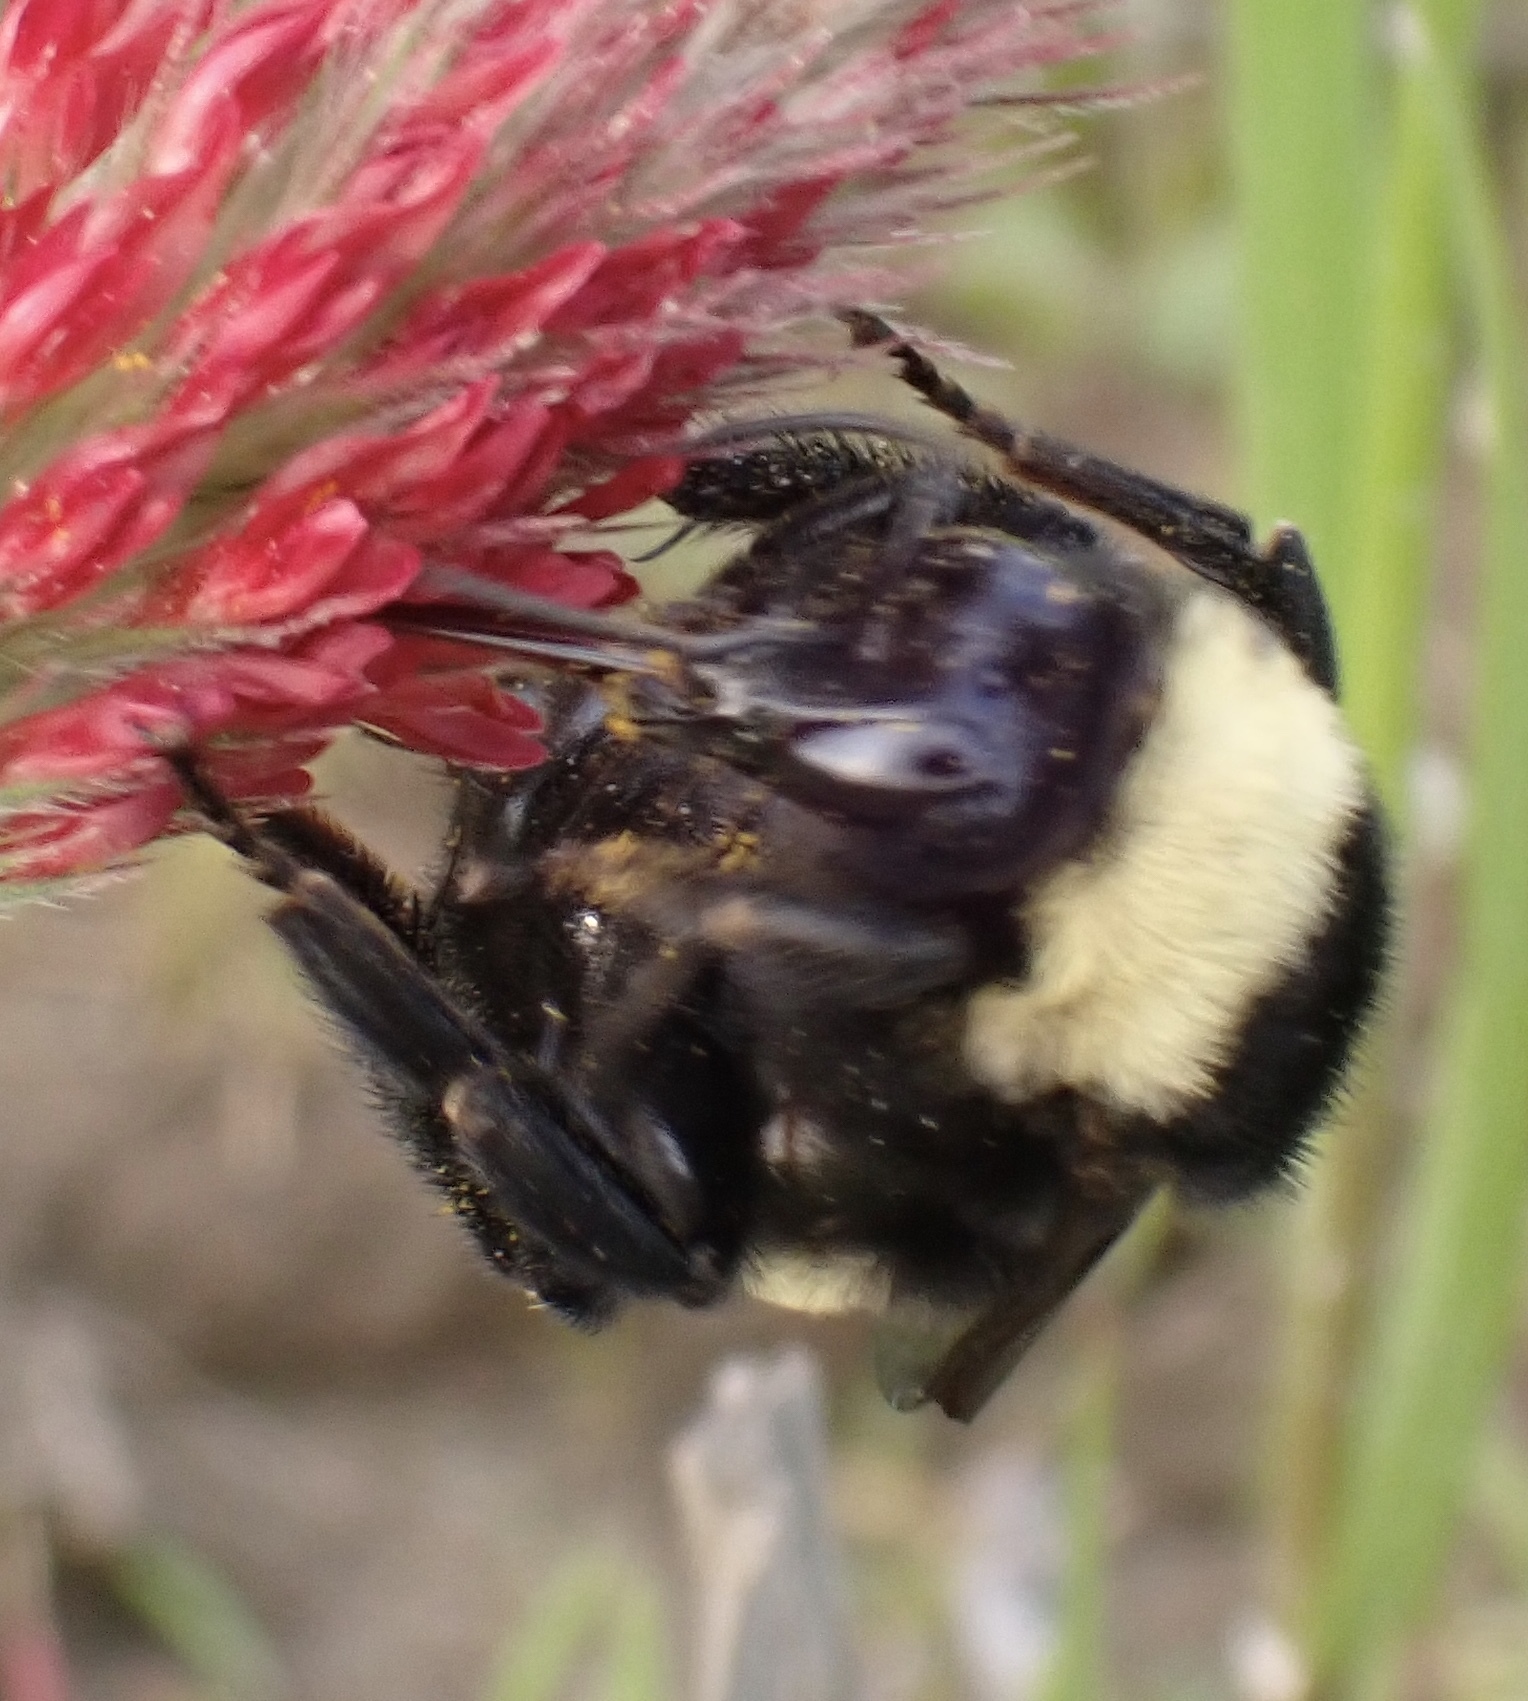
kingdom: Animalia
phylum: Arthropoda
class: Insecta
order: Hymenoptera
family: Apidae
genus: Bombus
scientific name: Bombus pensylvanicus
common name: Bumble bee
